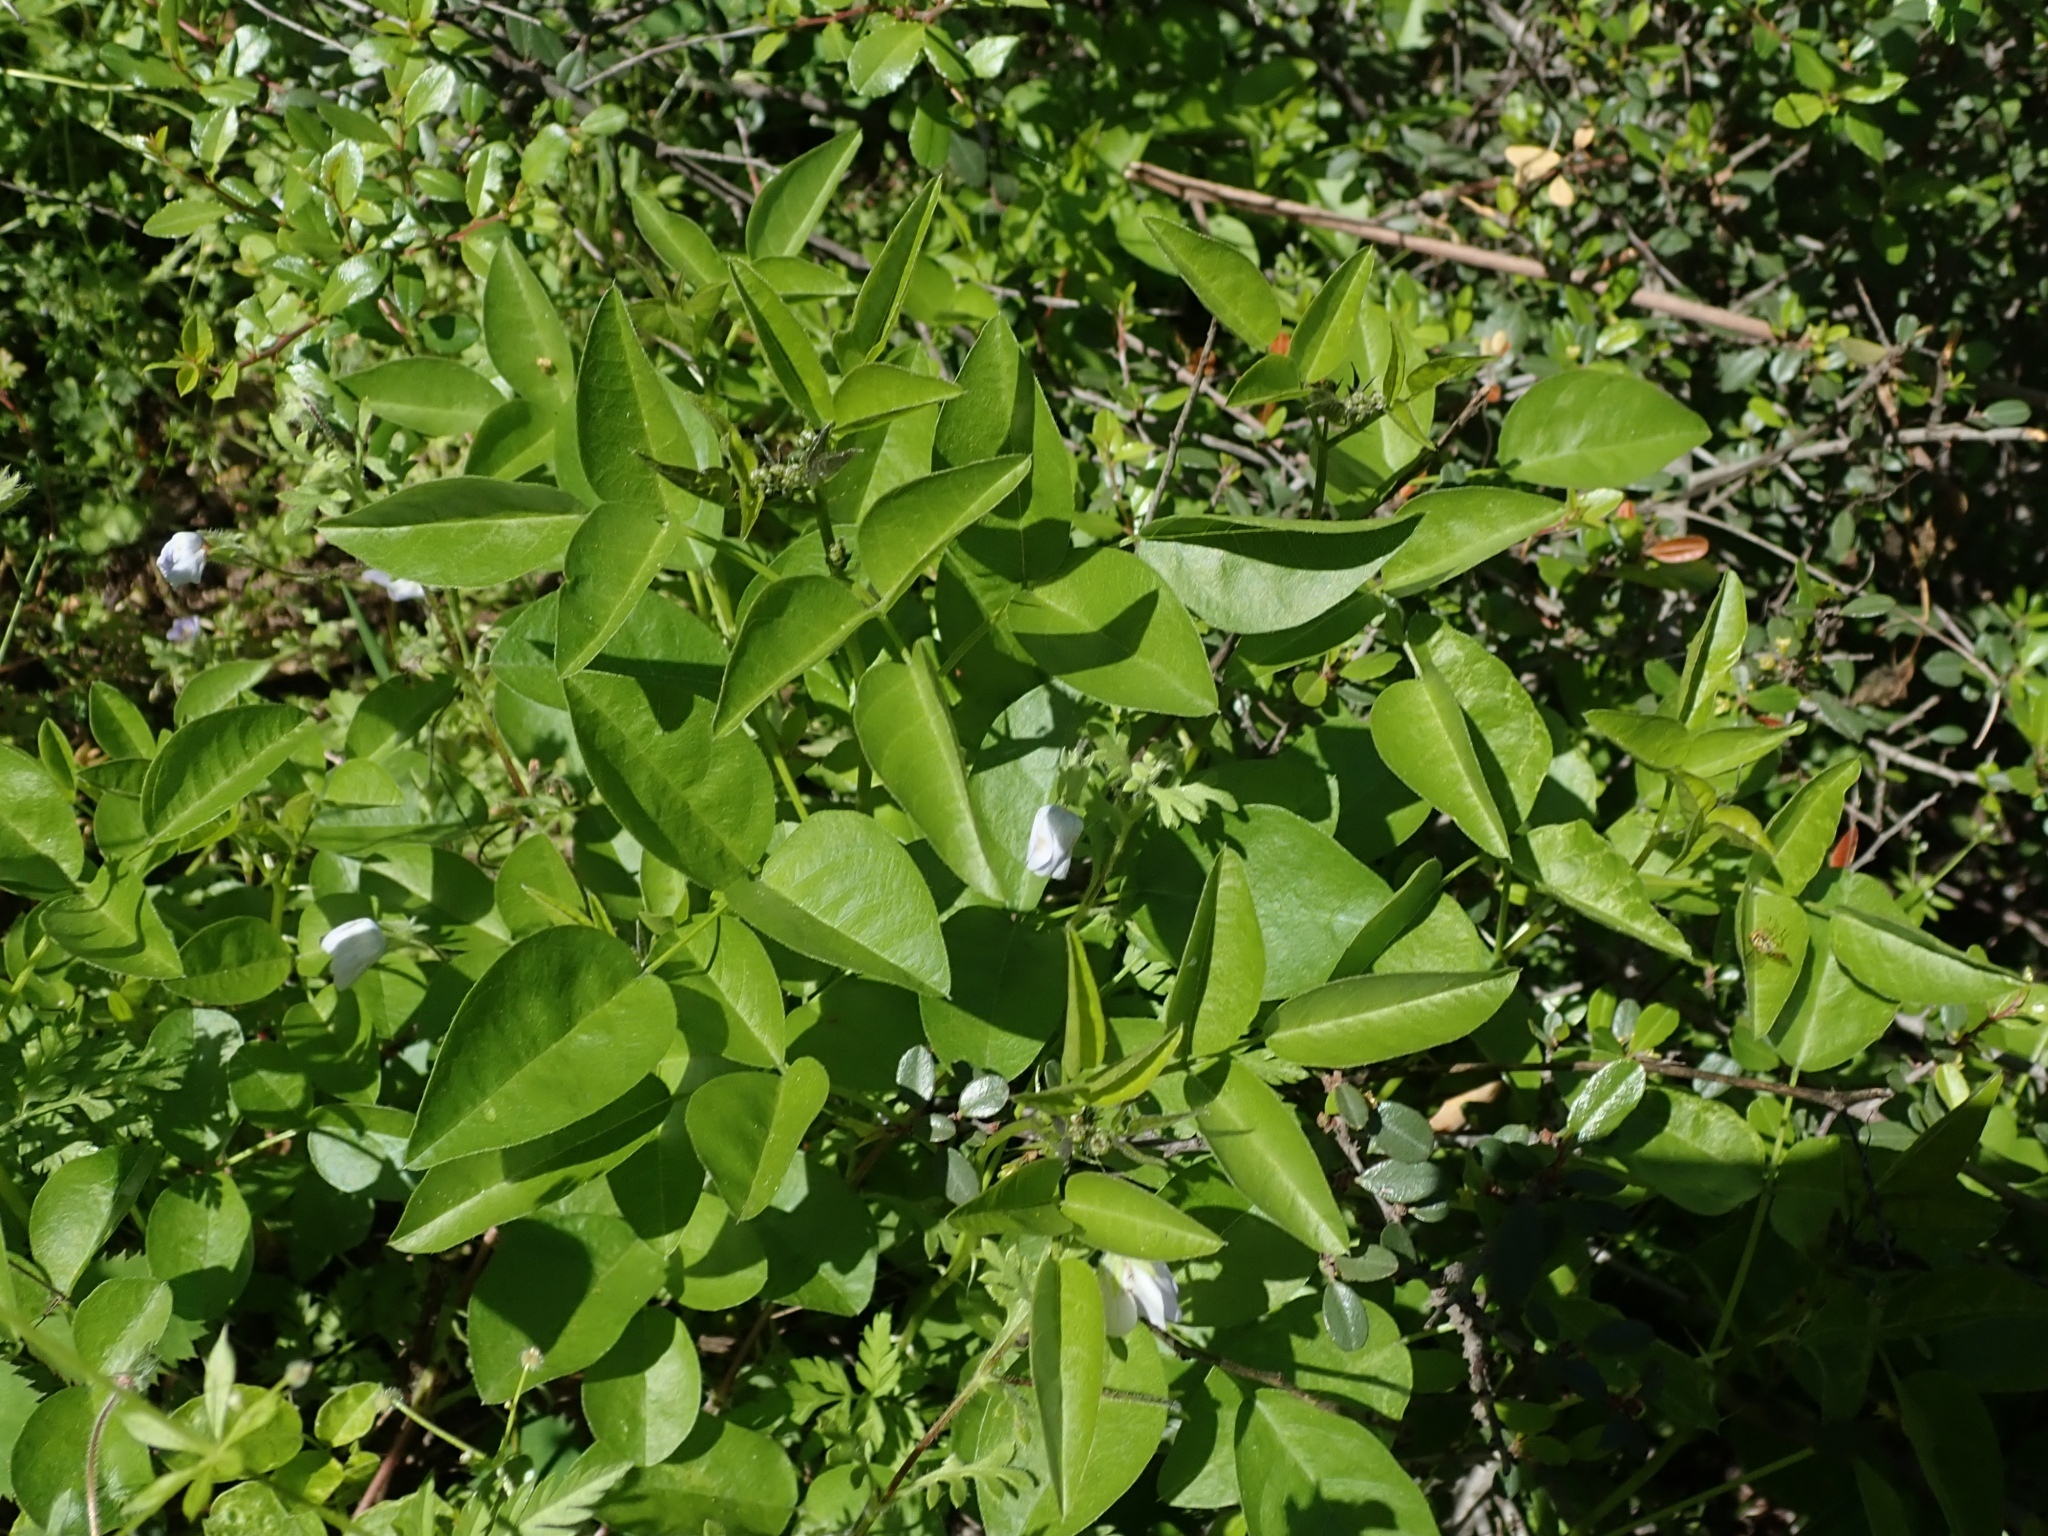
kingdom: Plantae
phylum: Tracheophyta
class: Magnoliopsida
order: Fabales
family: Fabaceae
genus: Rupertia
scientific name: Rupertia physodes
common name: California-tea
